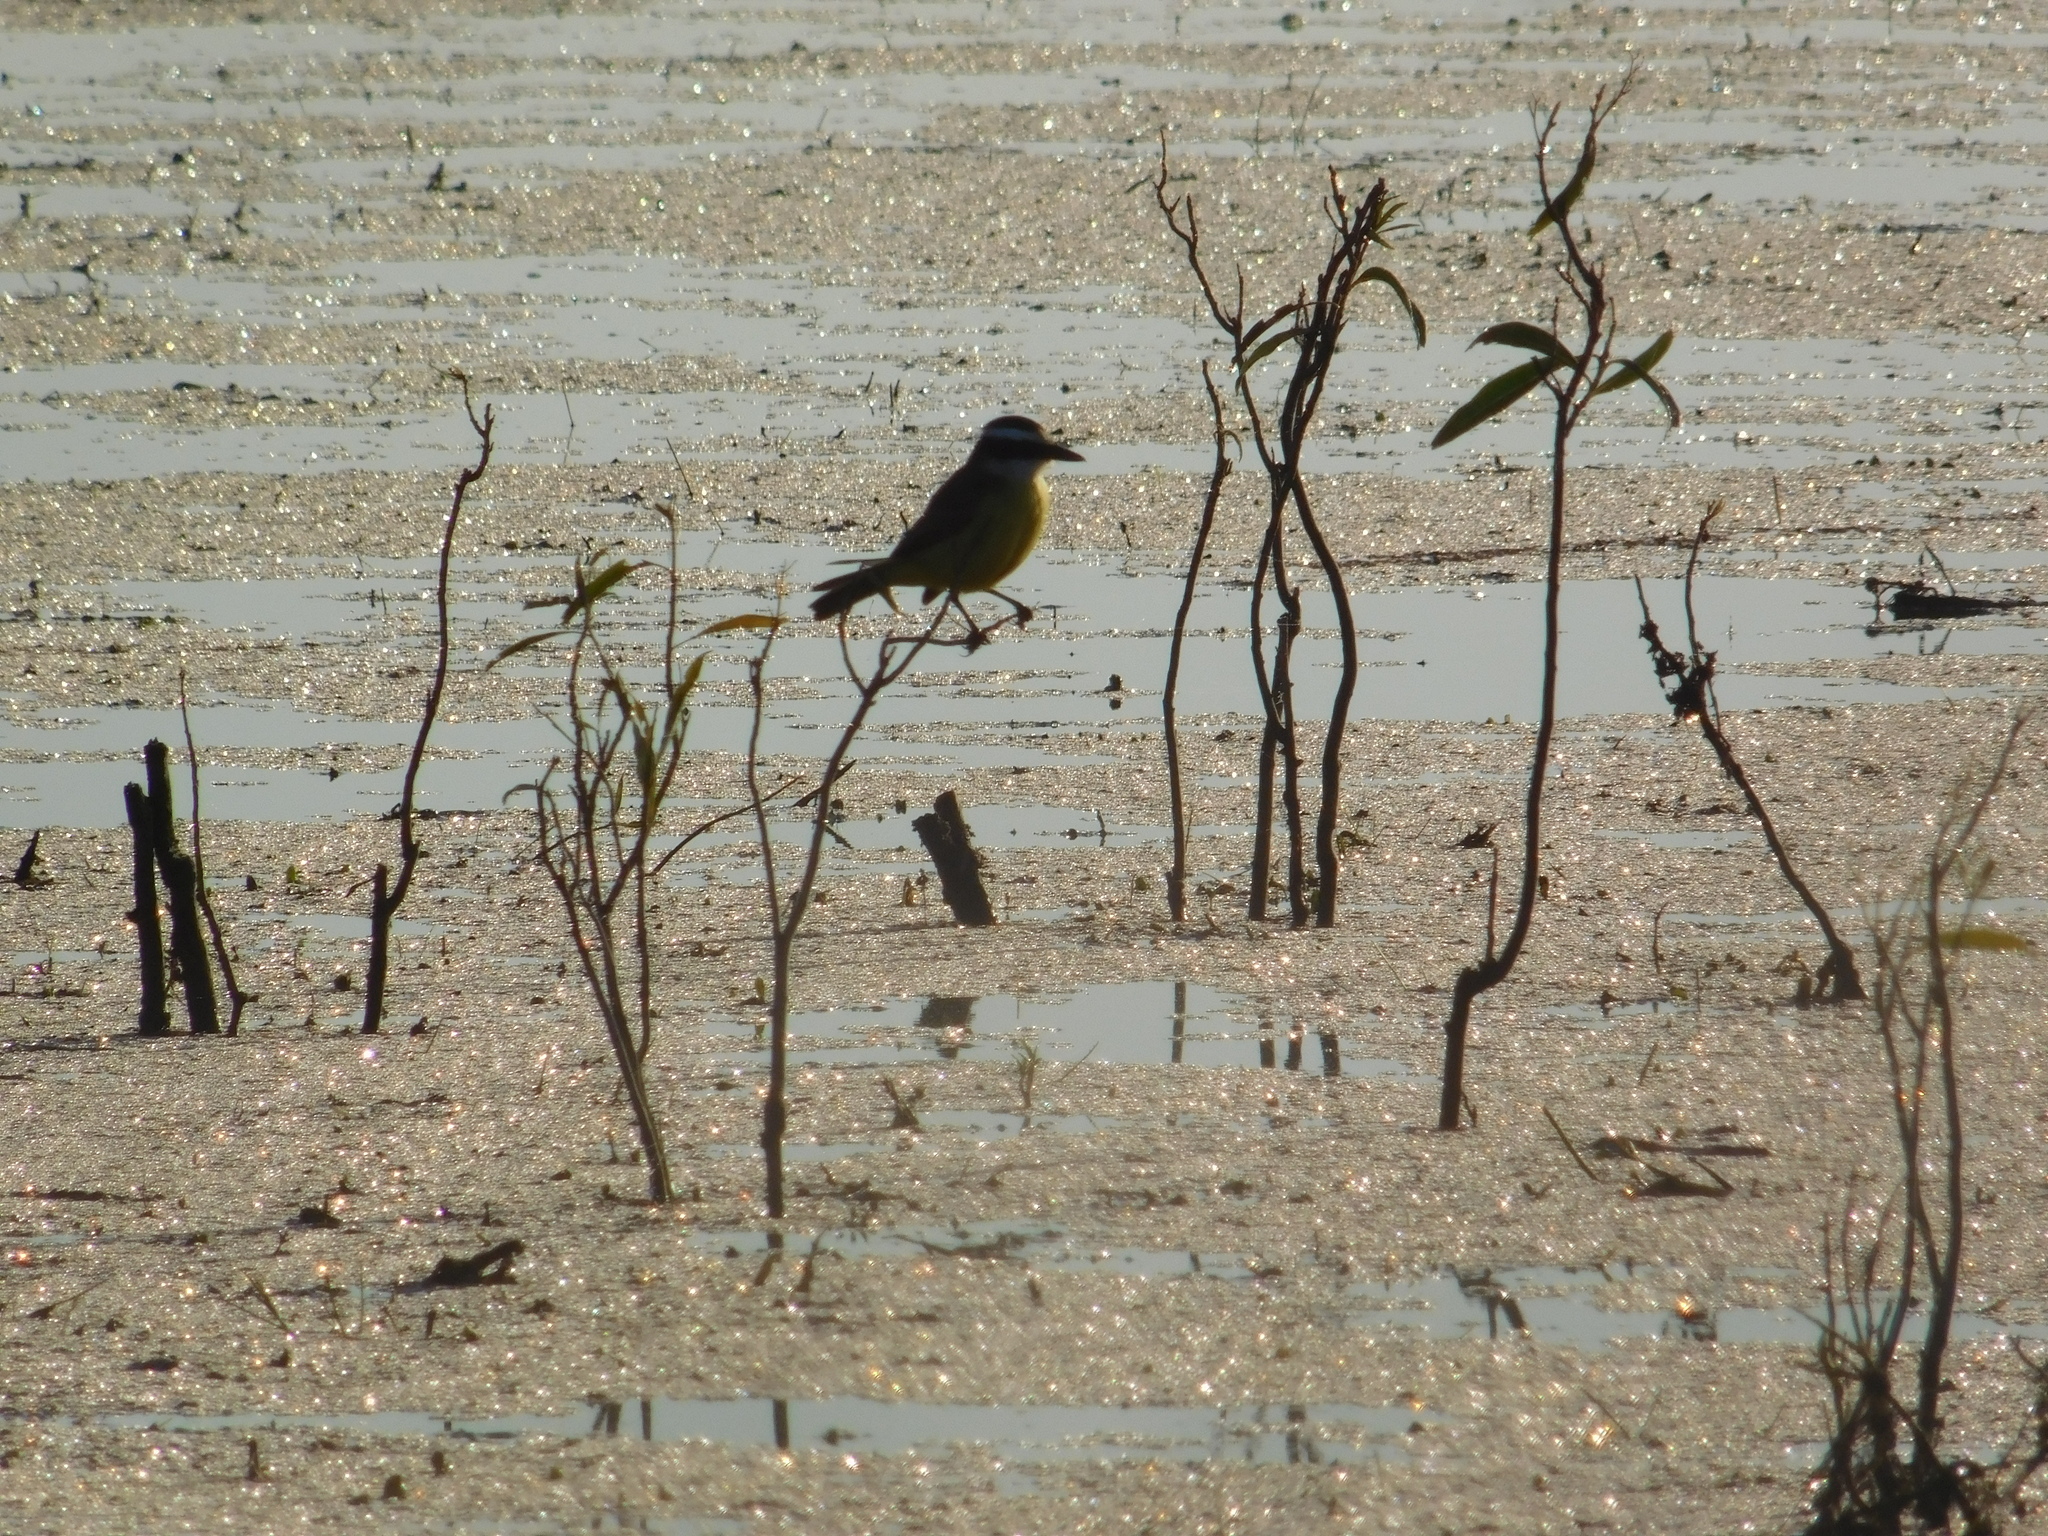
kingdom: Animalia
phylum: Chordata
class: Aves
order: Passeriformes
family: Tyrannidae
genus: Pitangus
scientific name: Pitangus sulphuratus
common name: Great kiskadee
